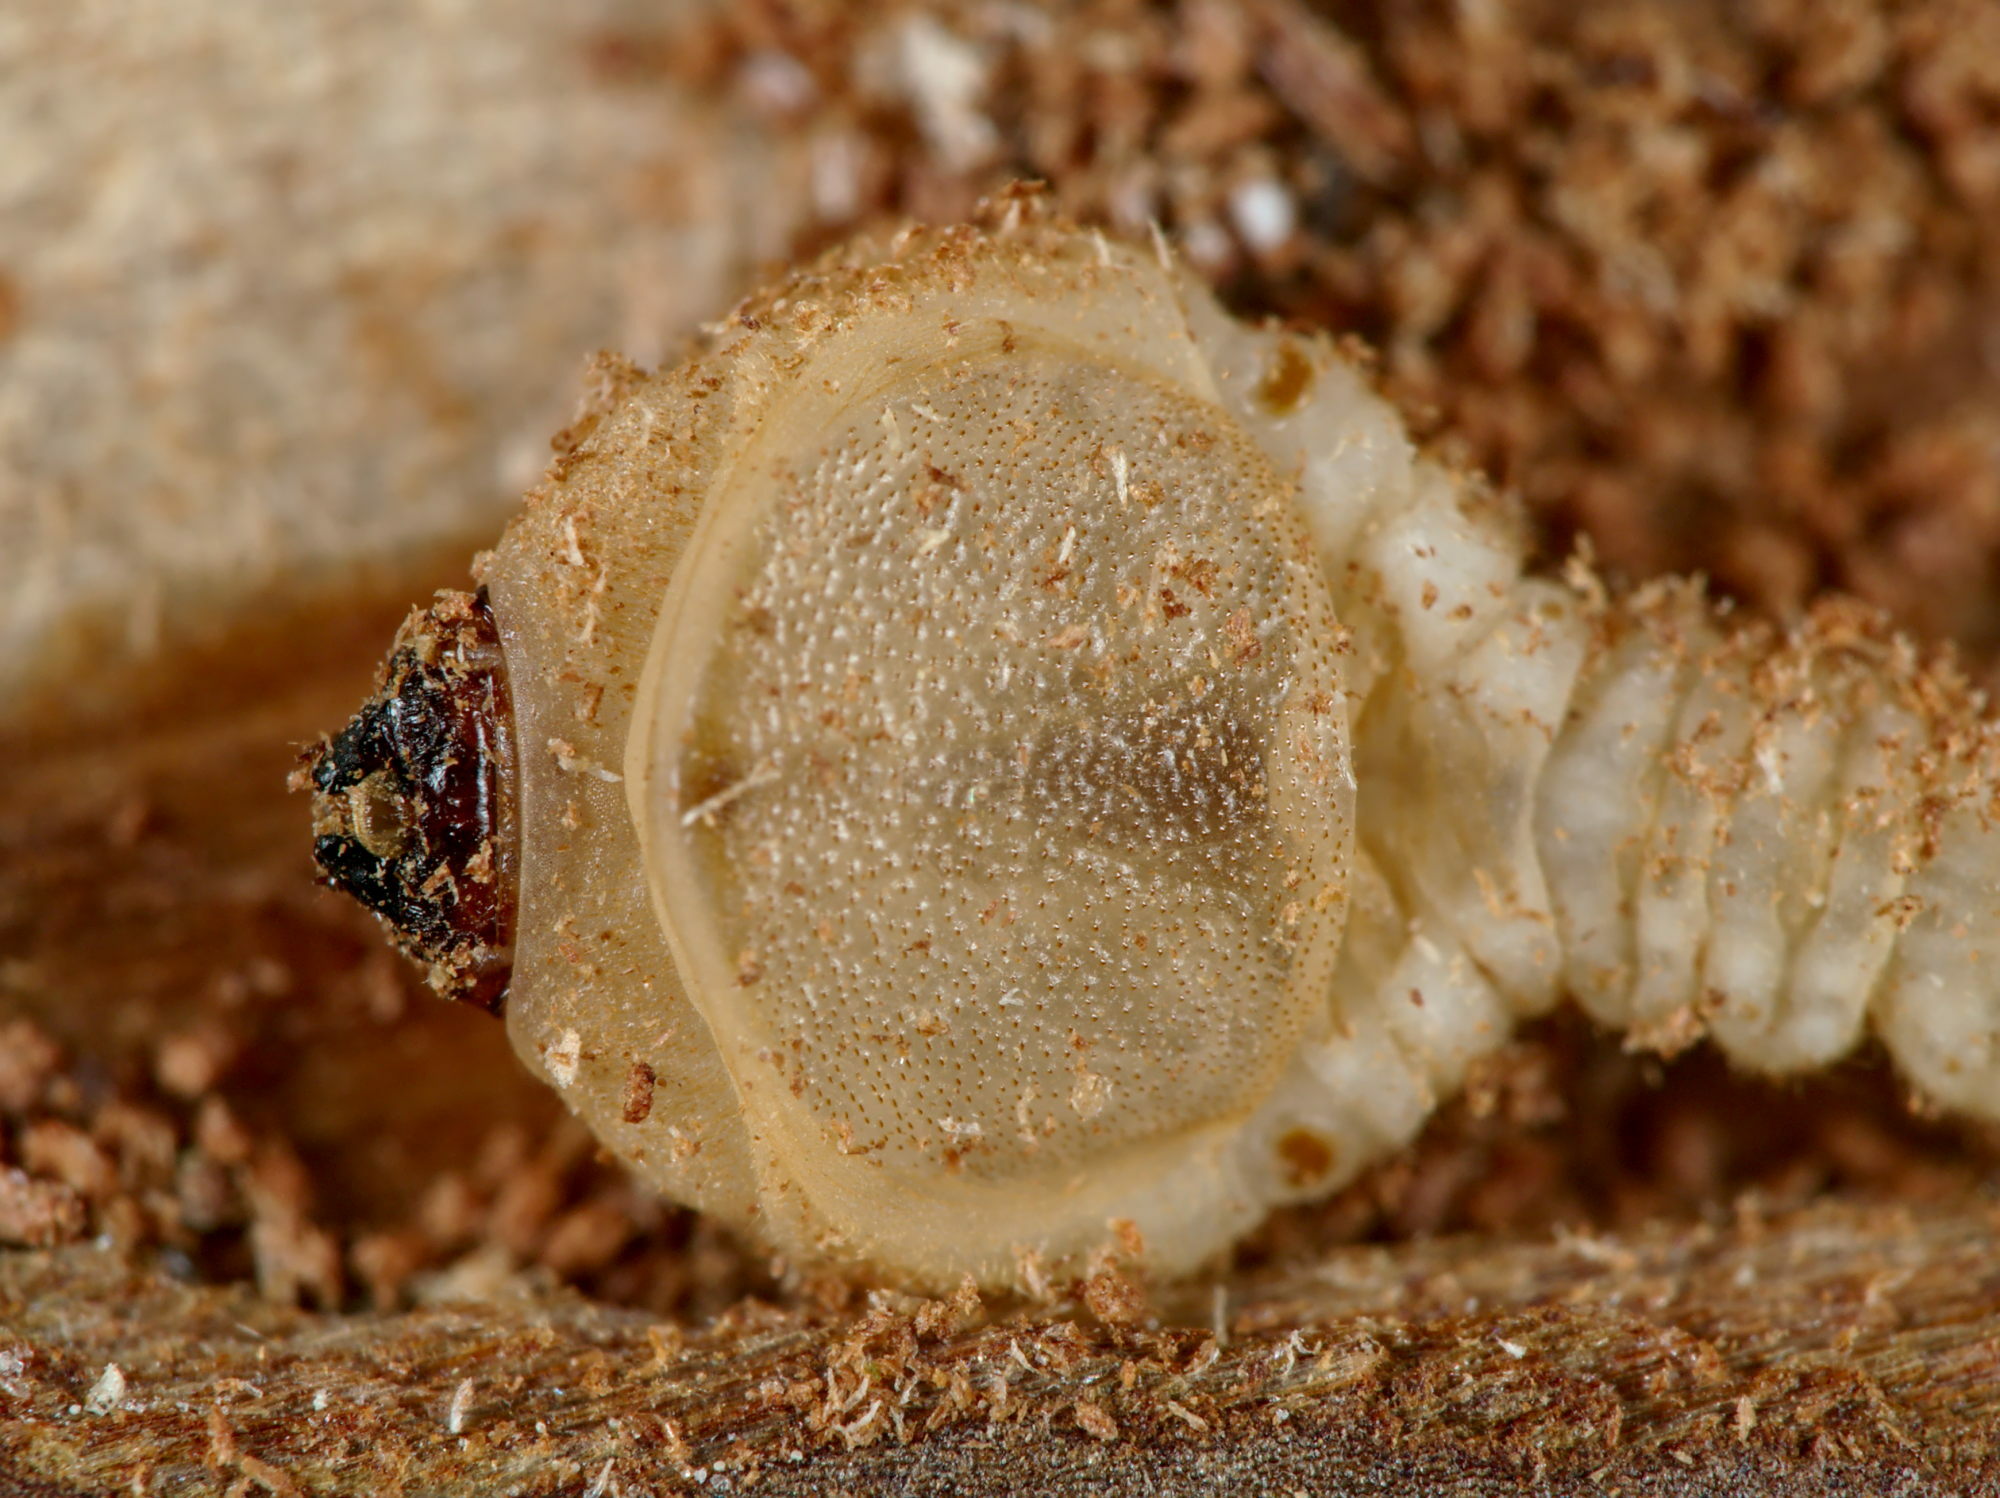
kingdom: Animalia
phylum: Arthropoda
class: Insecta
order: Coleoptera
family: Buprestidae
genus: Phaenops
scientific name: Phaenops cyanea
